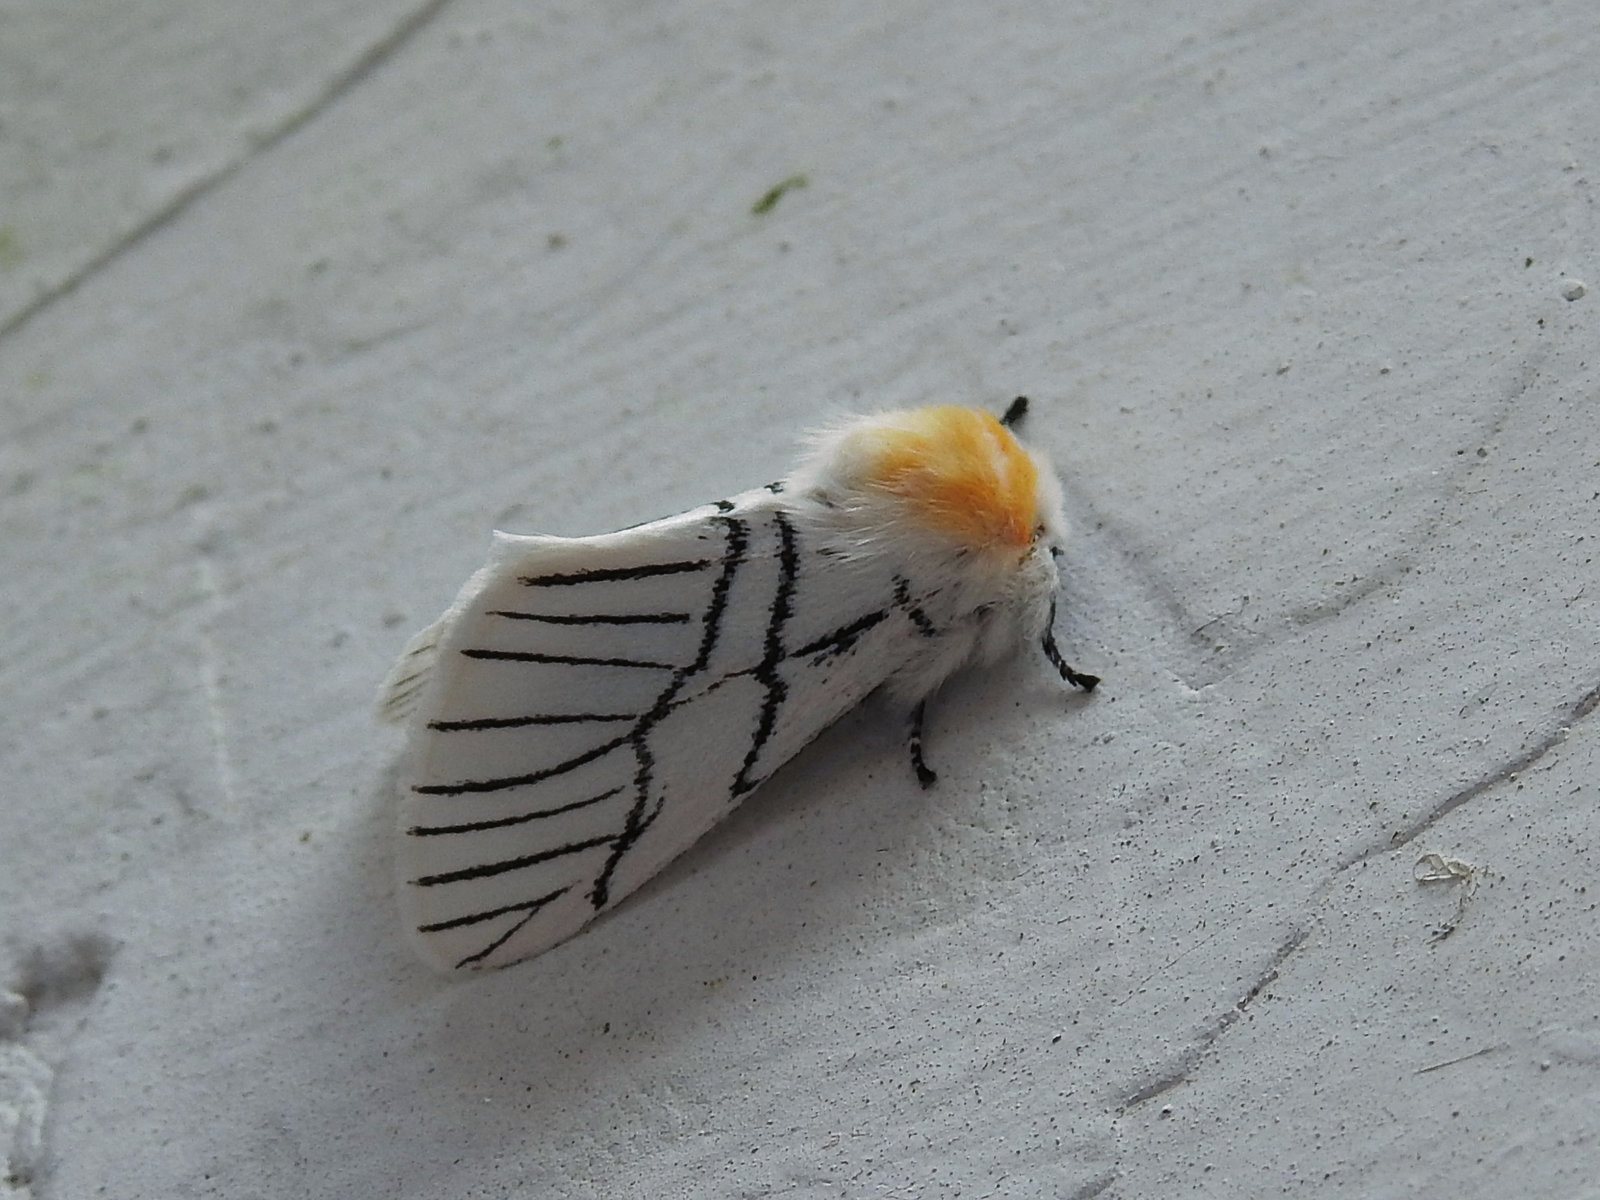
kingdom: Animalia
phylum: Arthropoda
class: Insecta
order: Lepidoptera
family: Notodontidae
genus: Oligoclona
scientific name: Oligoclona chrysolopha
